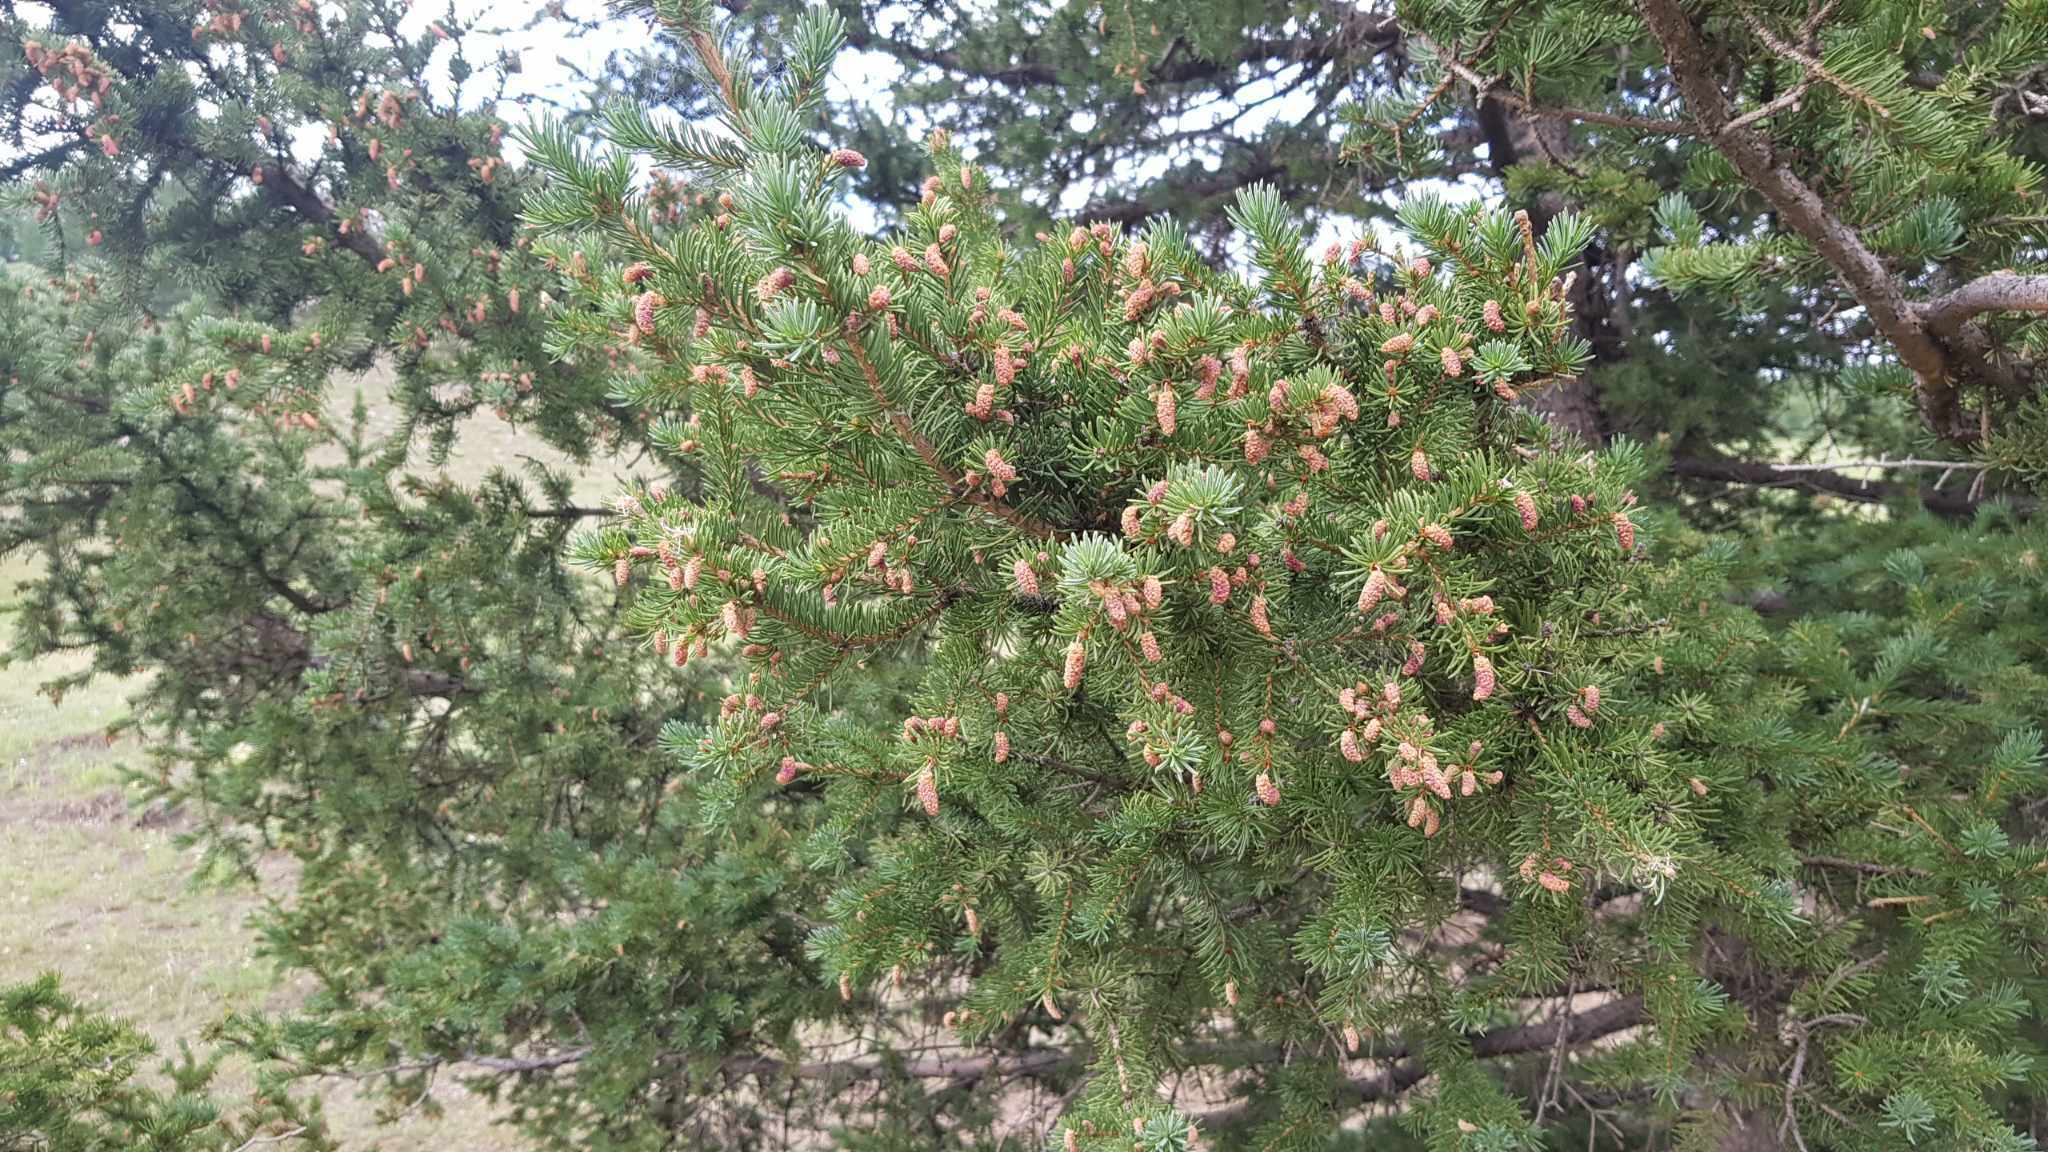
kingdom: Plantae
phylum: Tracheophyta
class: Pinopsida
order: Pinales
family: Pinaceae
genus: Picea
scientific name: Picea obovata
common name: Siberian spruce
